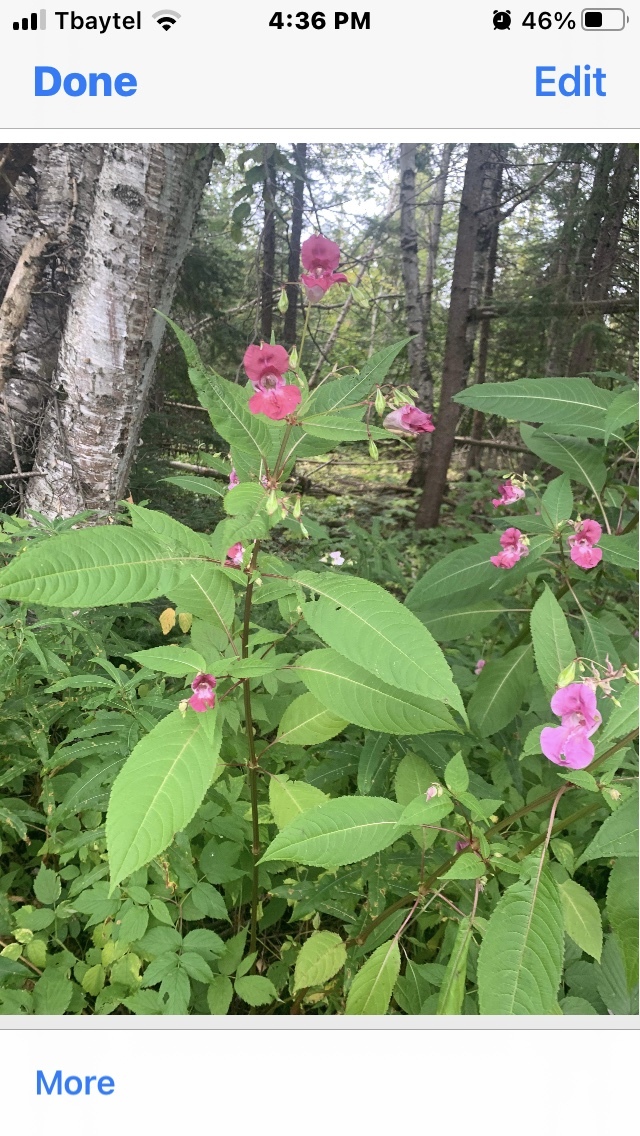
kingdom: Plantae
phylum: Tracheophyta
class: Magnoliopsida
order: Ericales
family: Balsaminaceae
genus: Impatiens
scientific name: Impatiens glandulifera
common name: Himalayan balsam
